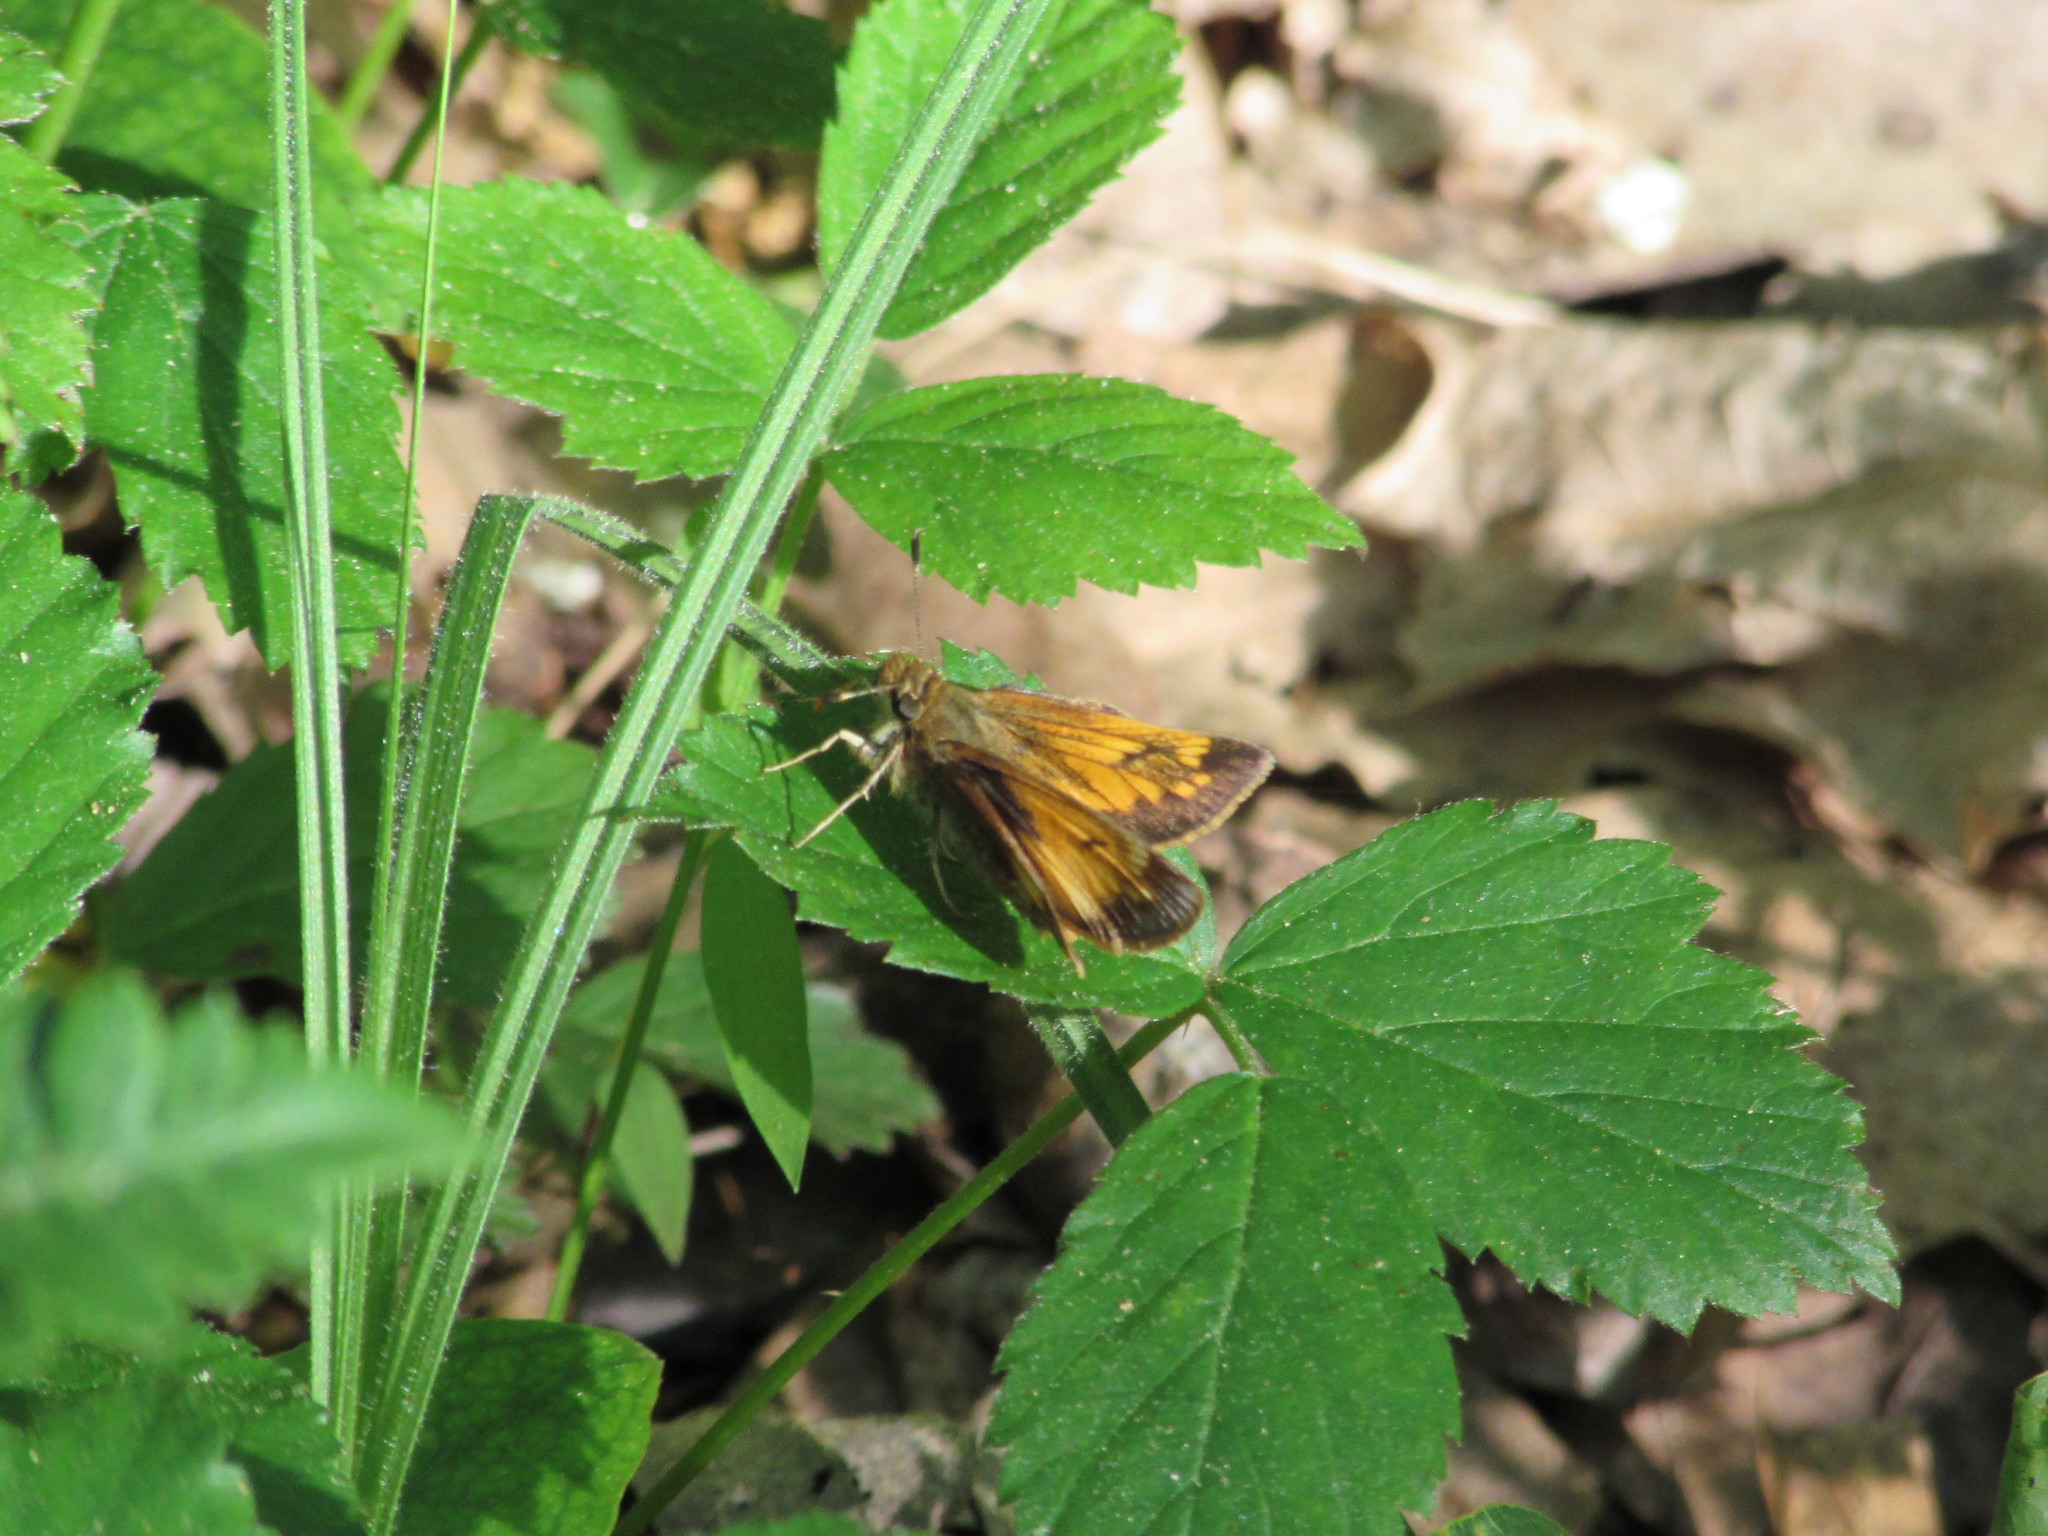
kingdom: Animalia
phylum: Arthropoda
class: Insecta
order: Lepidoptera
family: Hesperiidae
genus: Lon
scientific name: Lon hobomok
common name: Hobomok skipper
